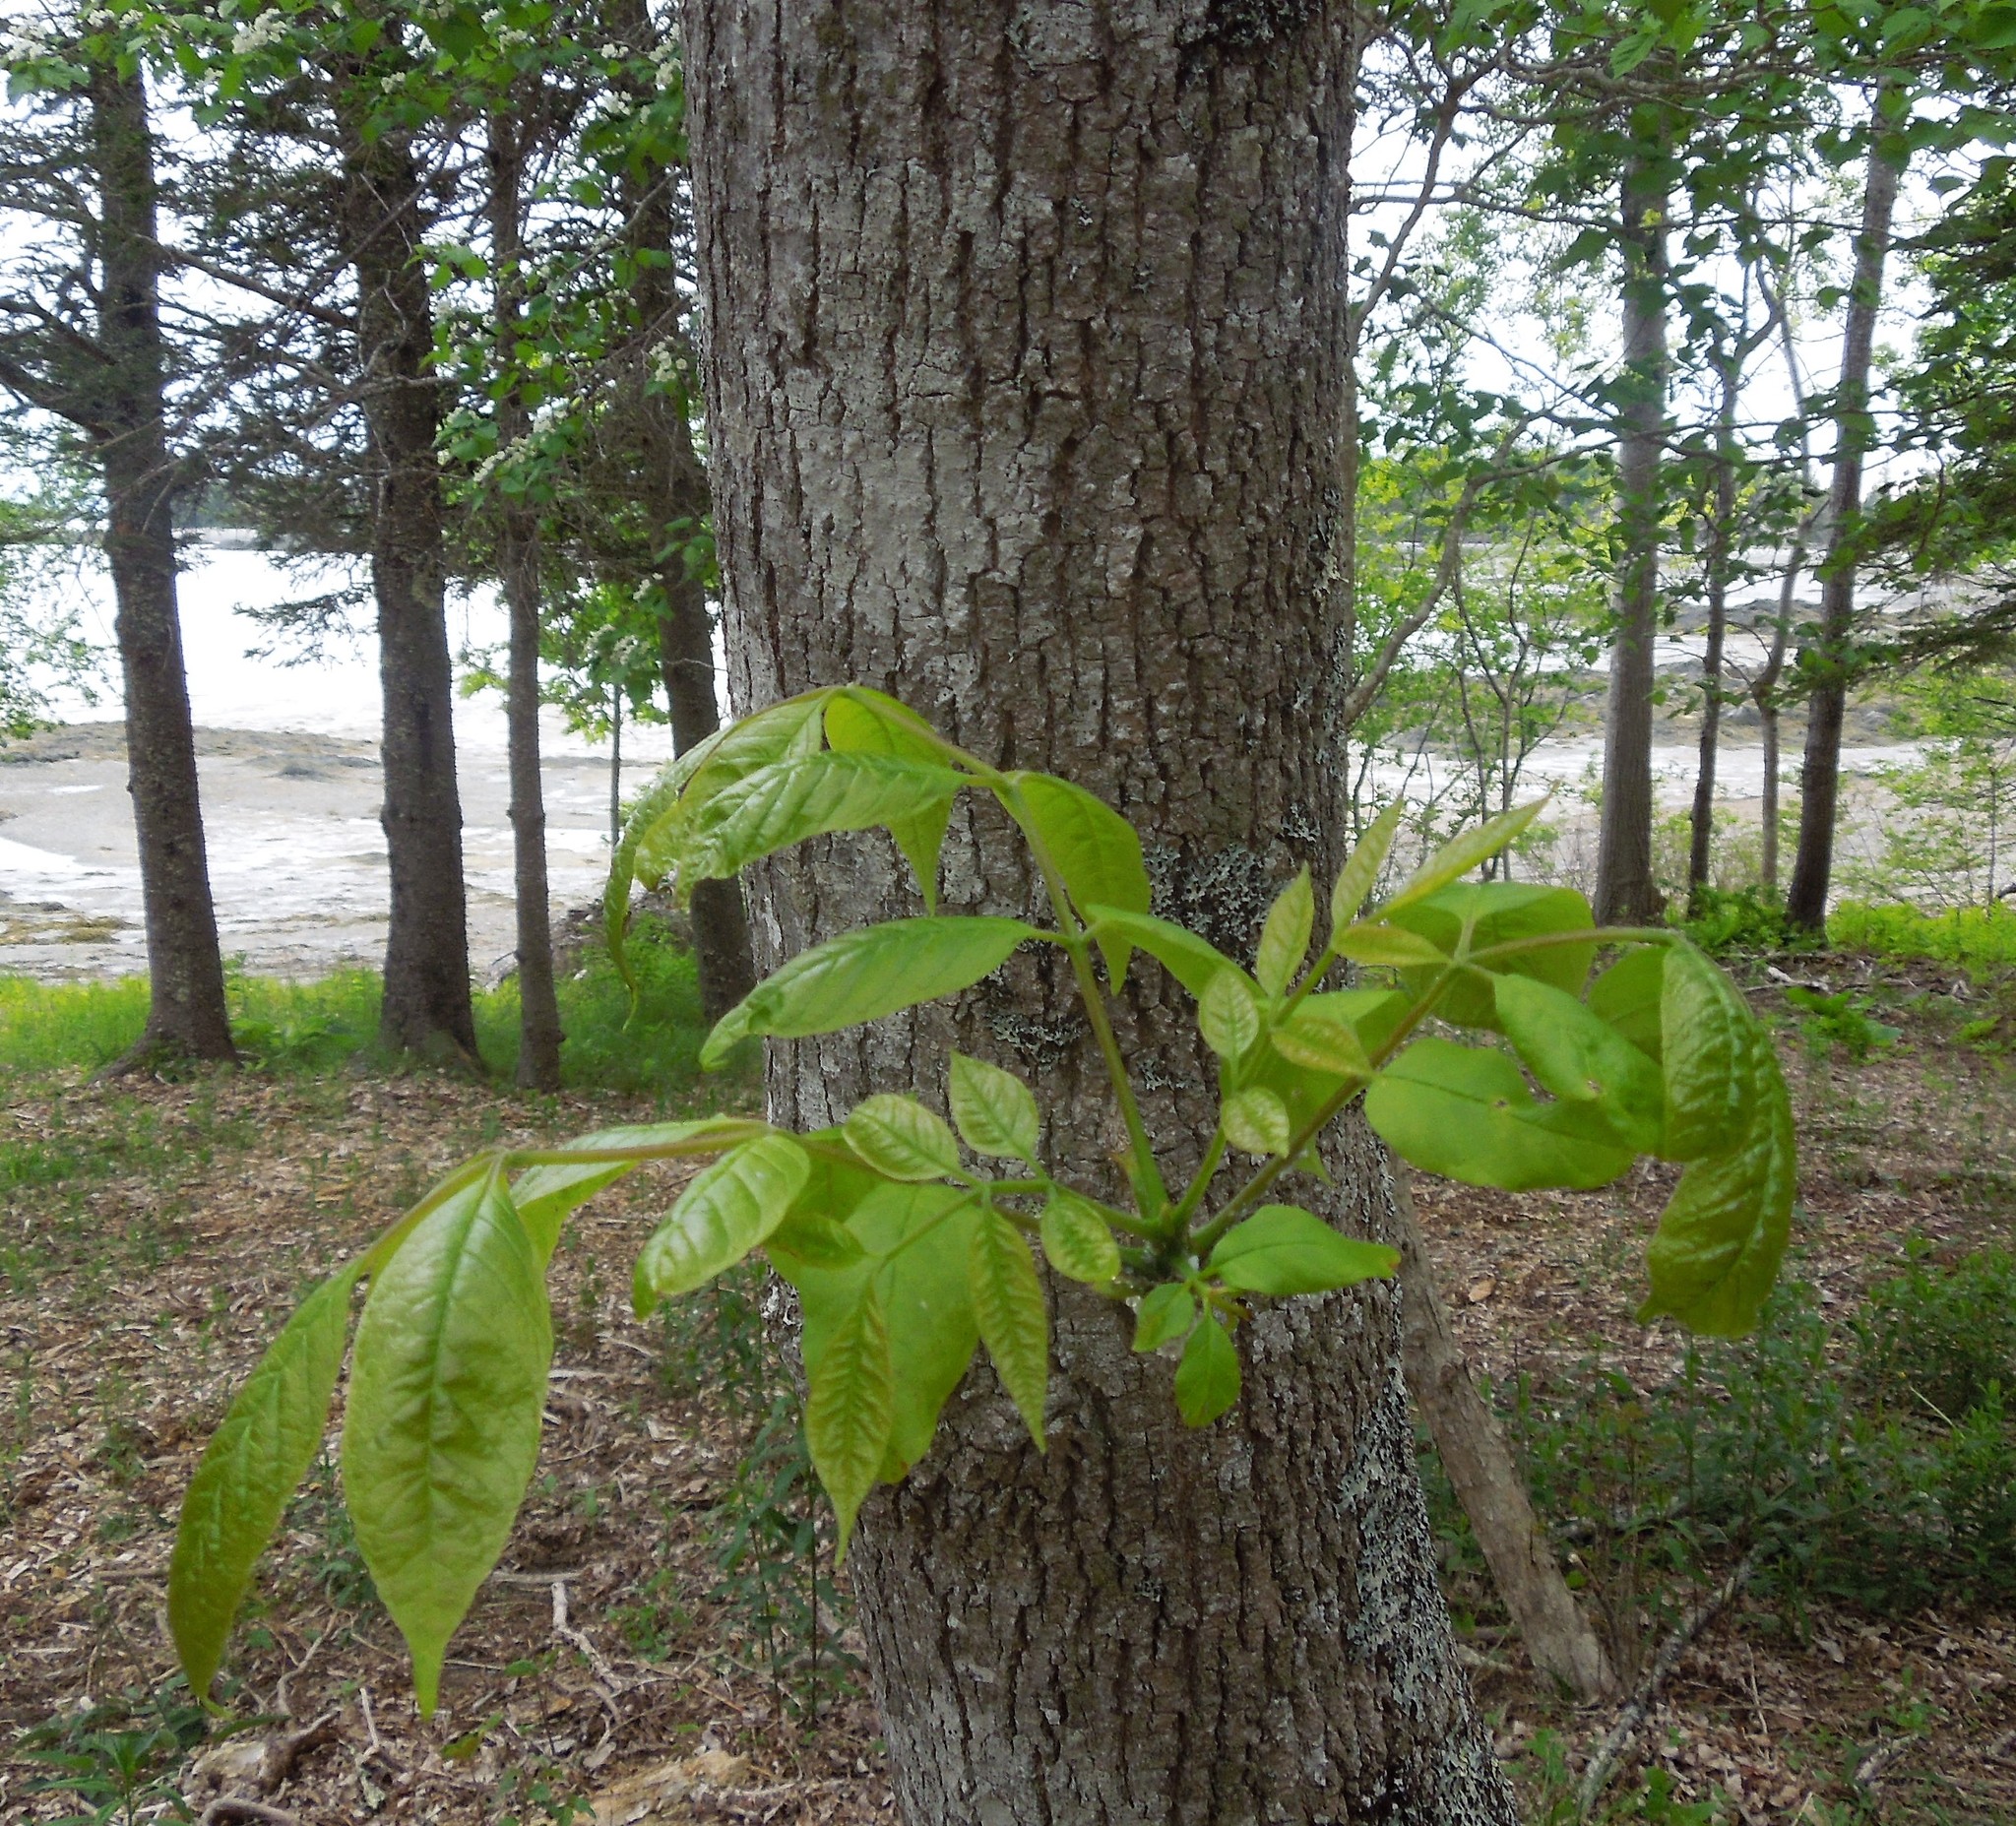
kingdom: Plantae
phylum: Tracheophyta
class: Magnoliopsida
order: Lamiales
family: Oleaceae
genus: Fraxinus
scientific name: Fraxinus
